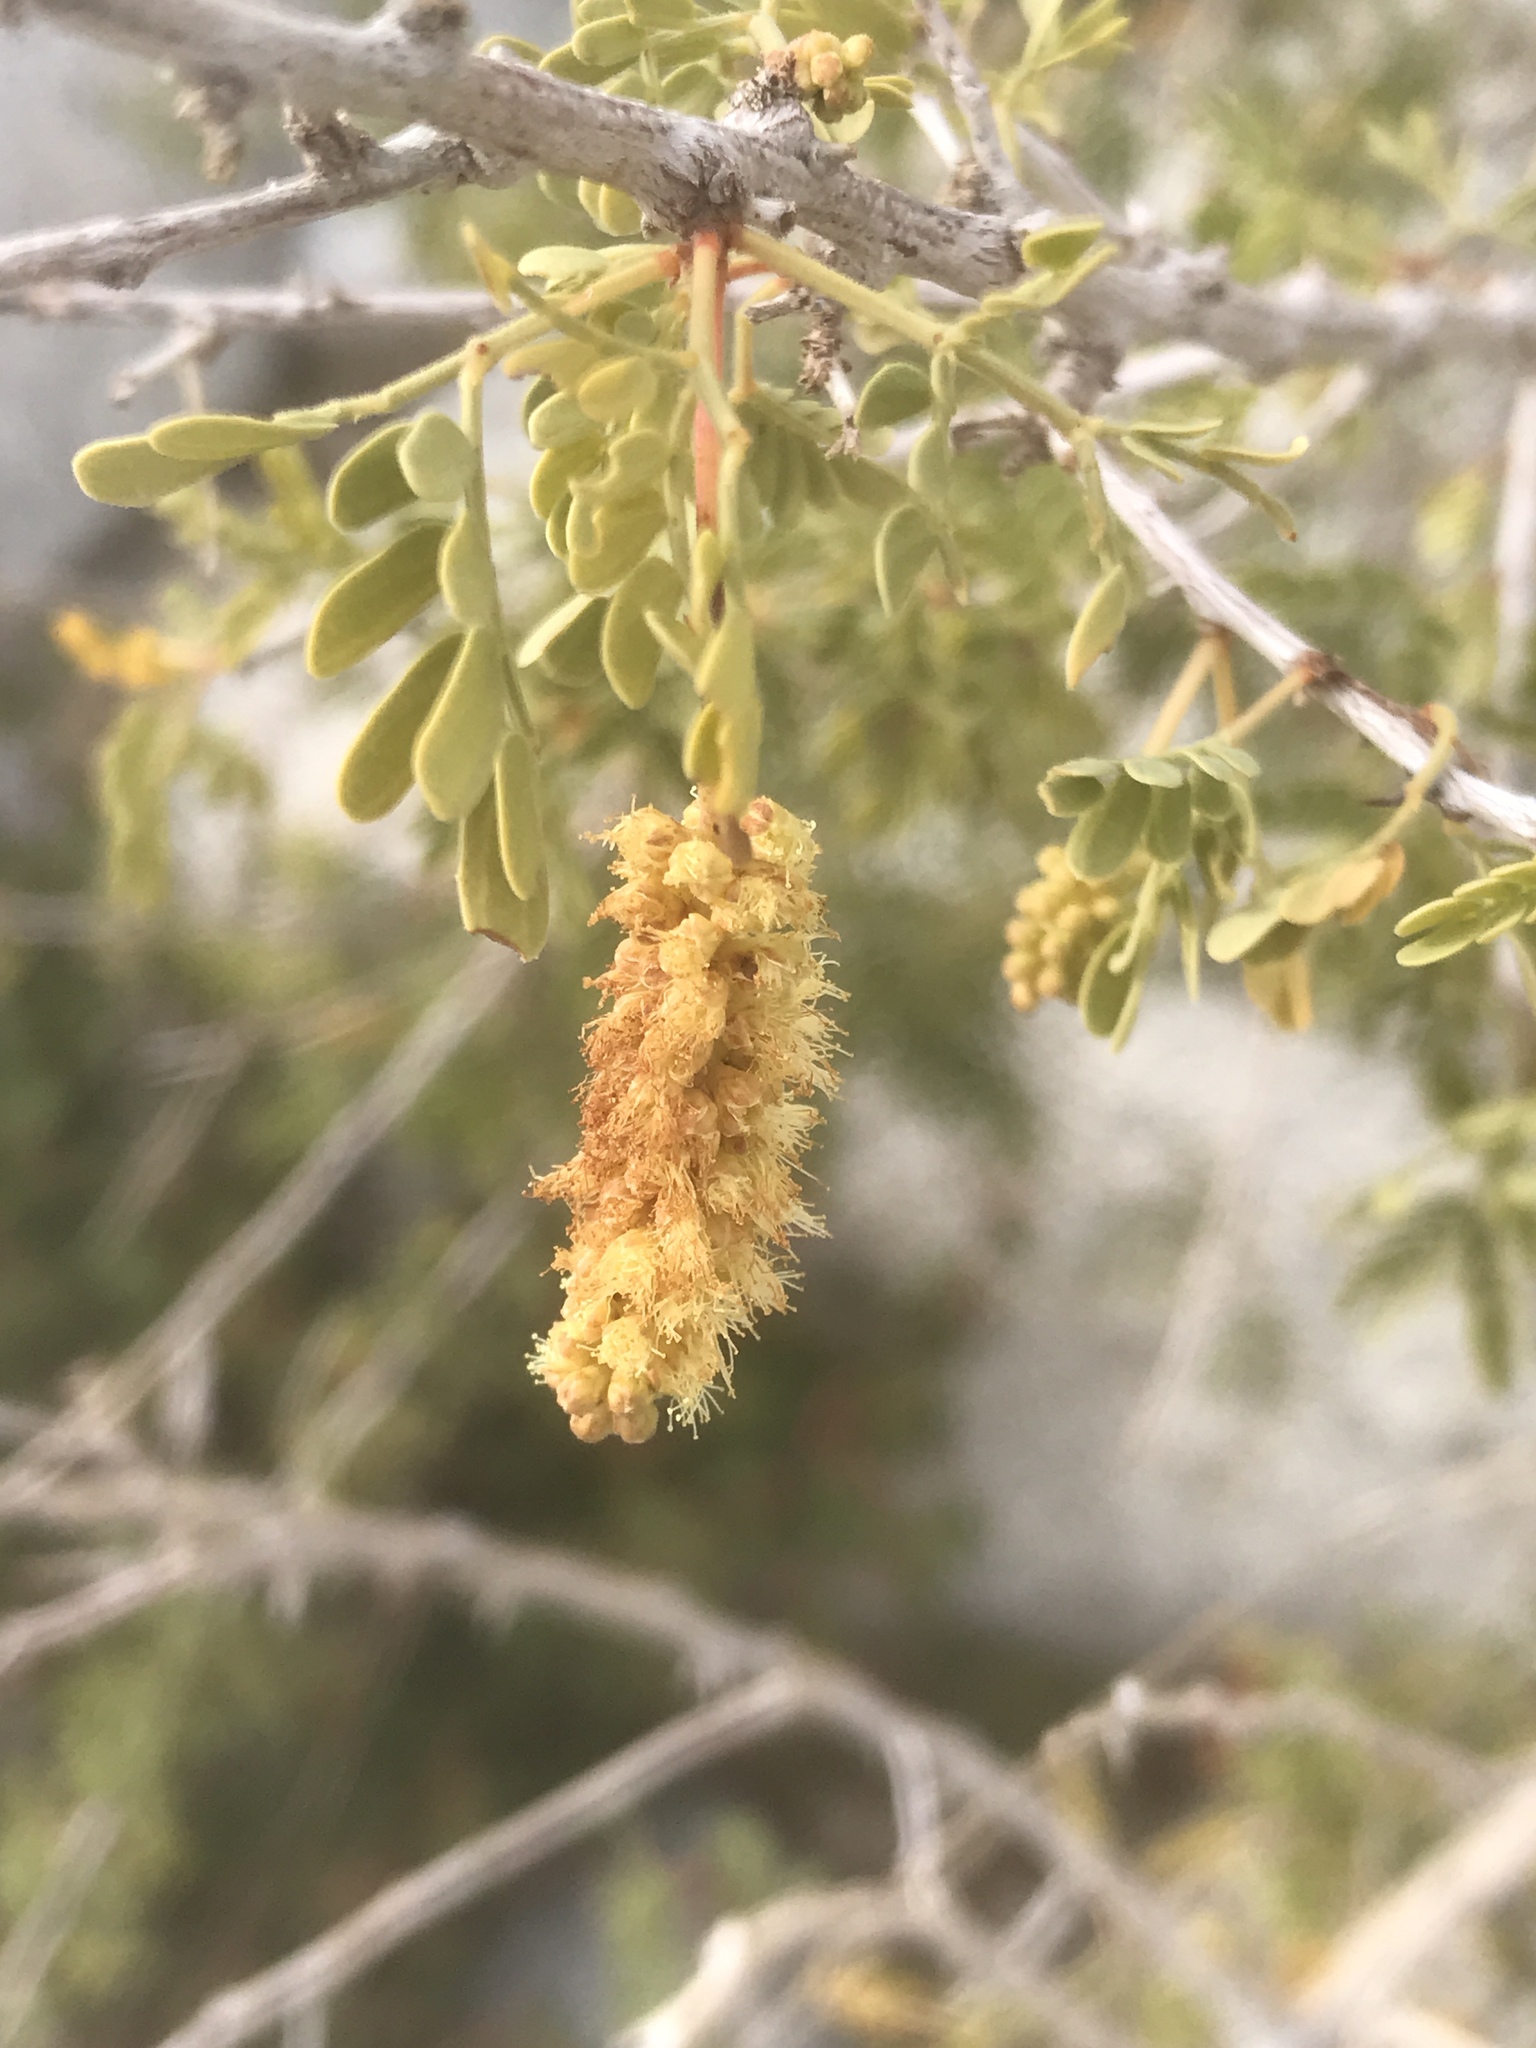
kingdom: Plantae
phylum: Tracheophyta
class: Magnoliopsida
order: Fabales
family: Fabaceae
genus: Senegalia
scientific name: Senegalia greggii
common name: Texas-mimosa
